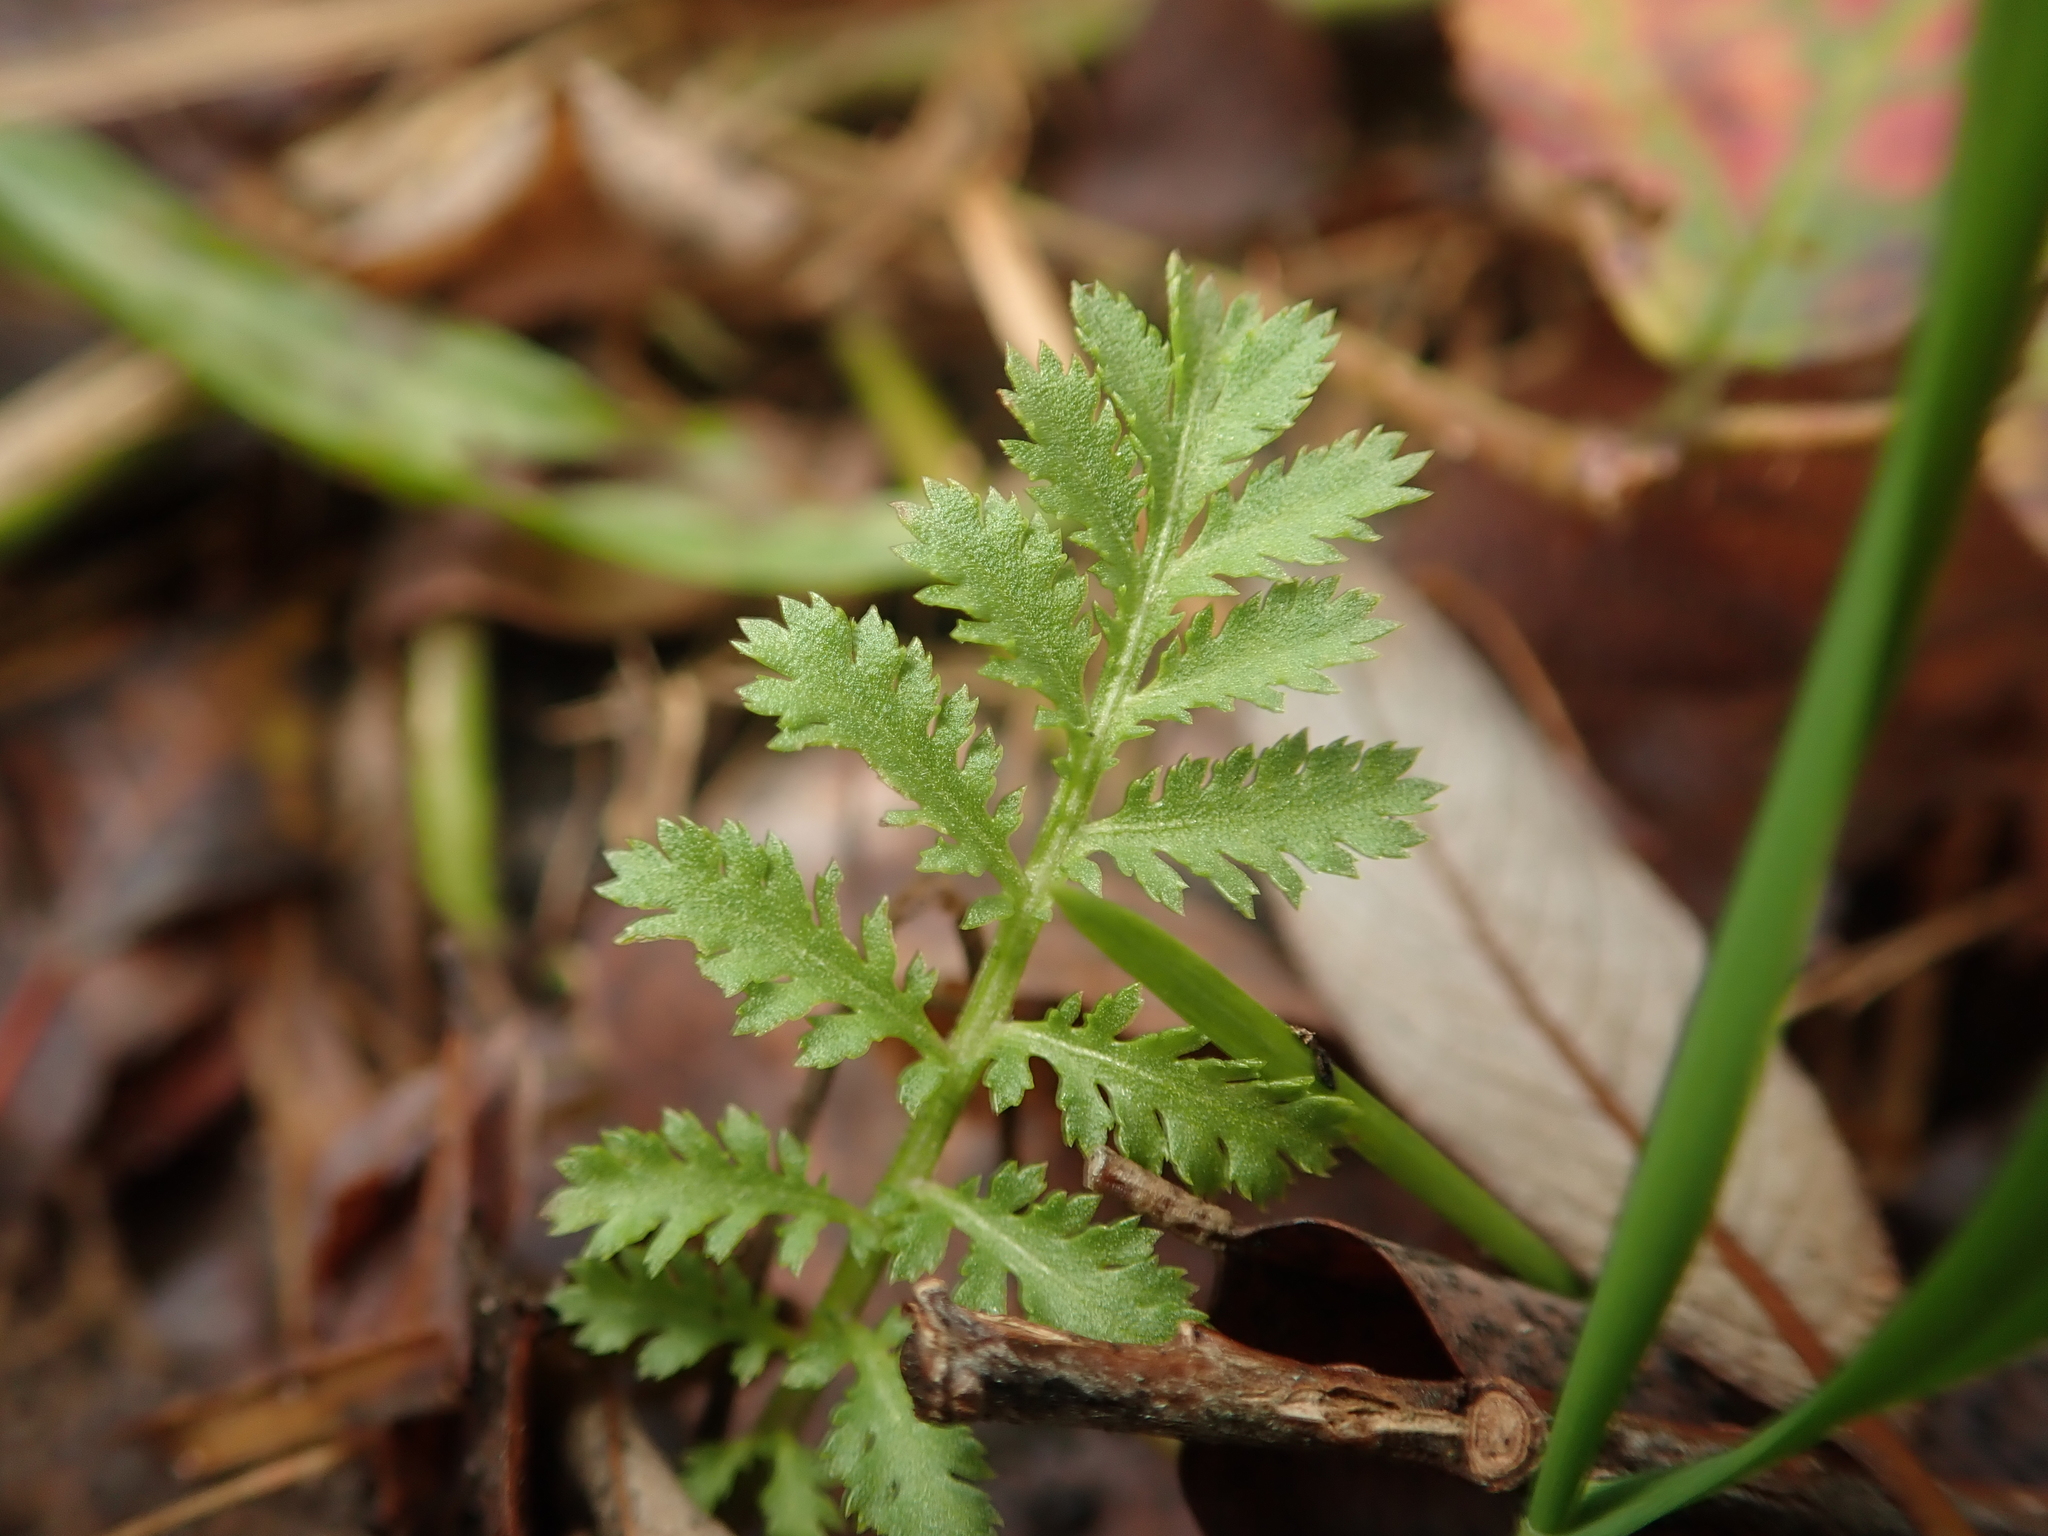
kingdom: Plantae
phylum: Tracheophyta
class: Magnoliopsida
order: Asterales
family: Asteraceae
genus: Tanacetum
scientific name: Tanacetum vulgare
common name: Common tansy
